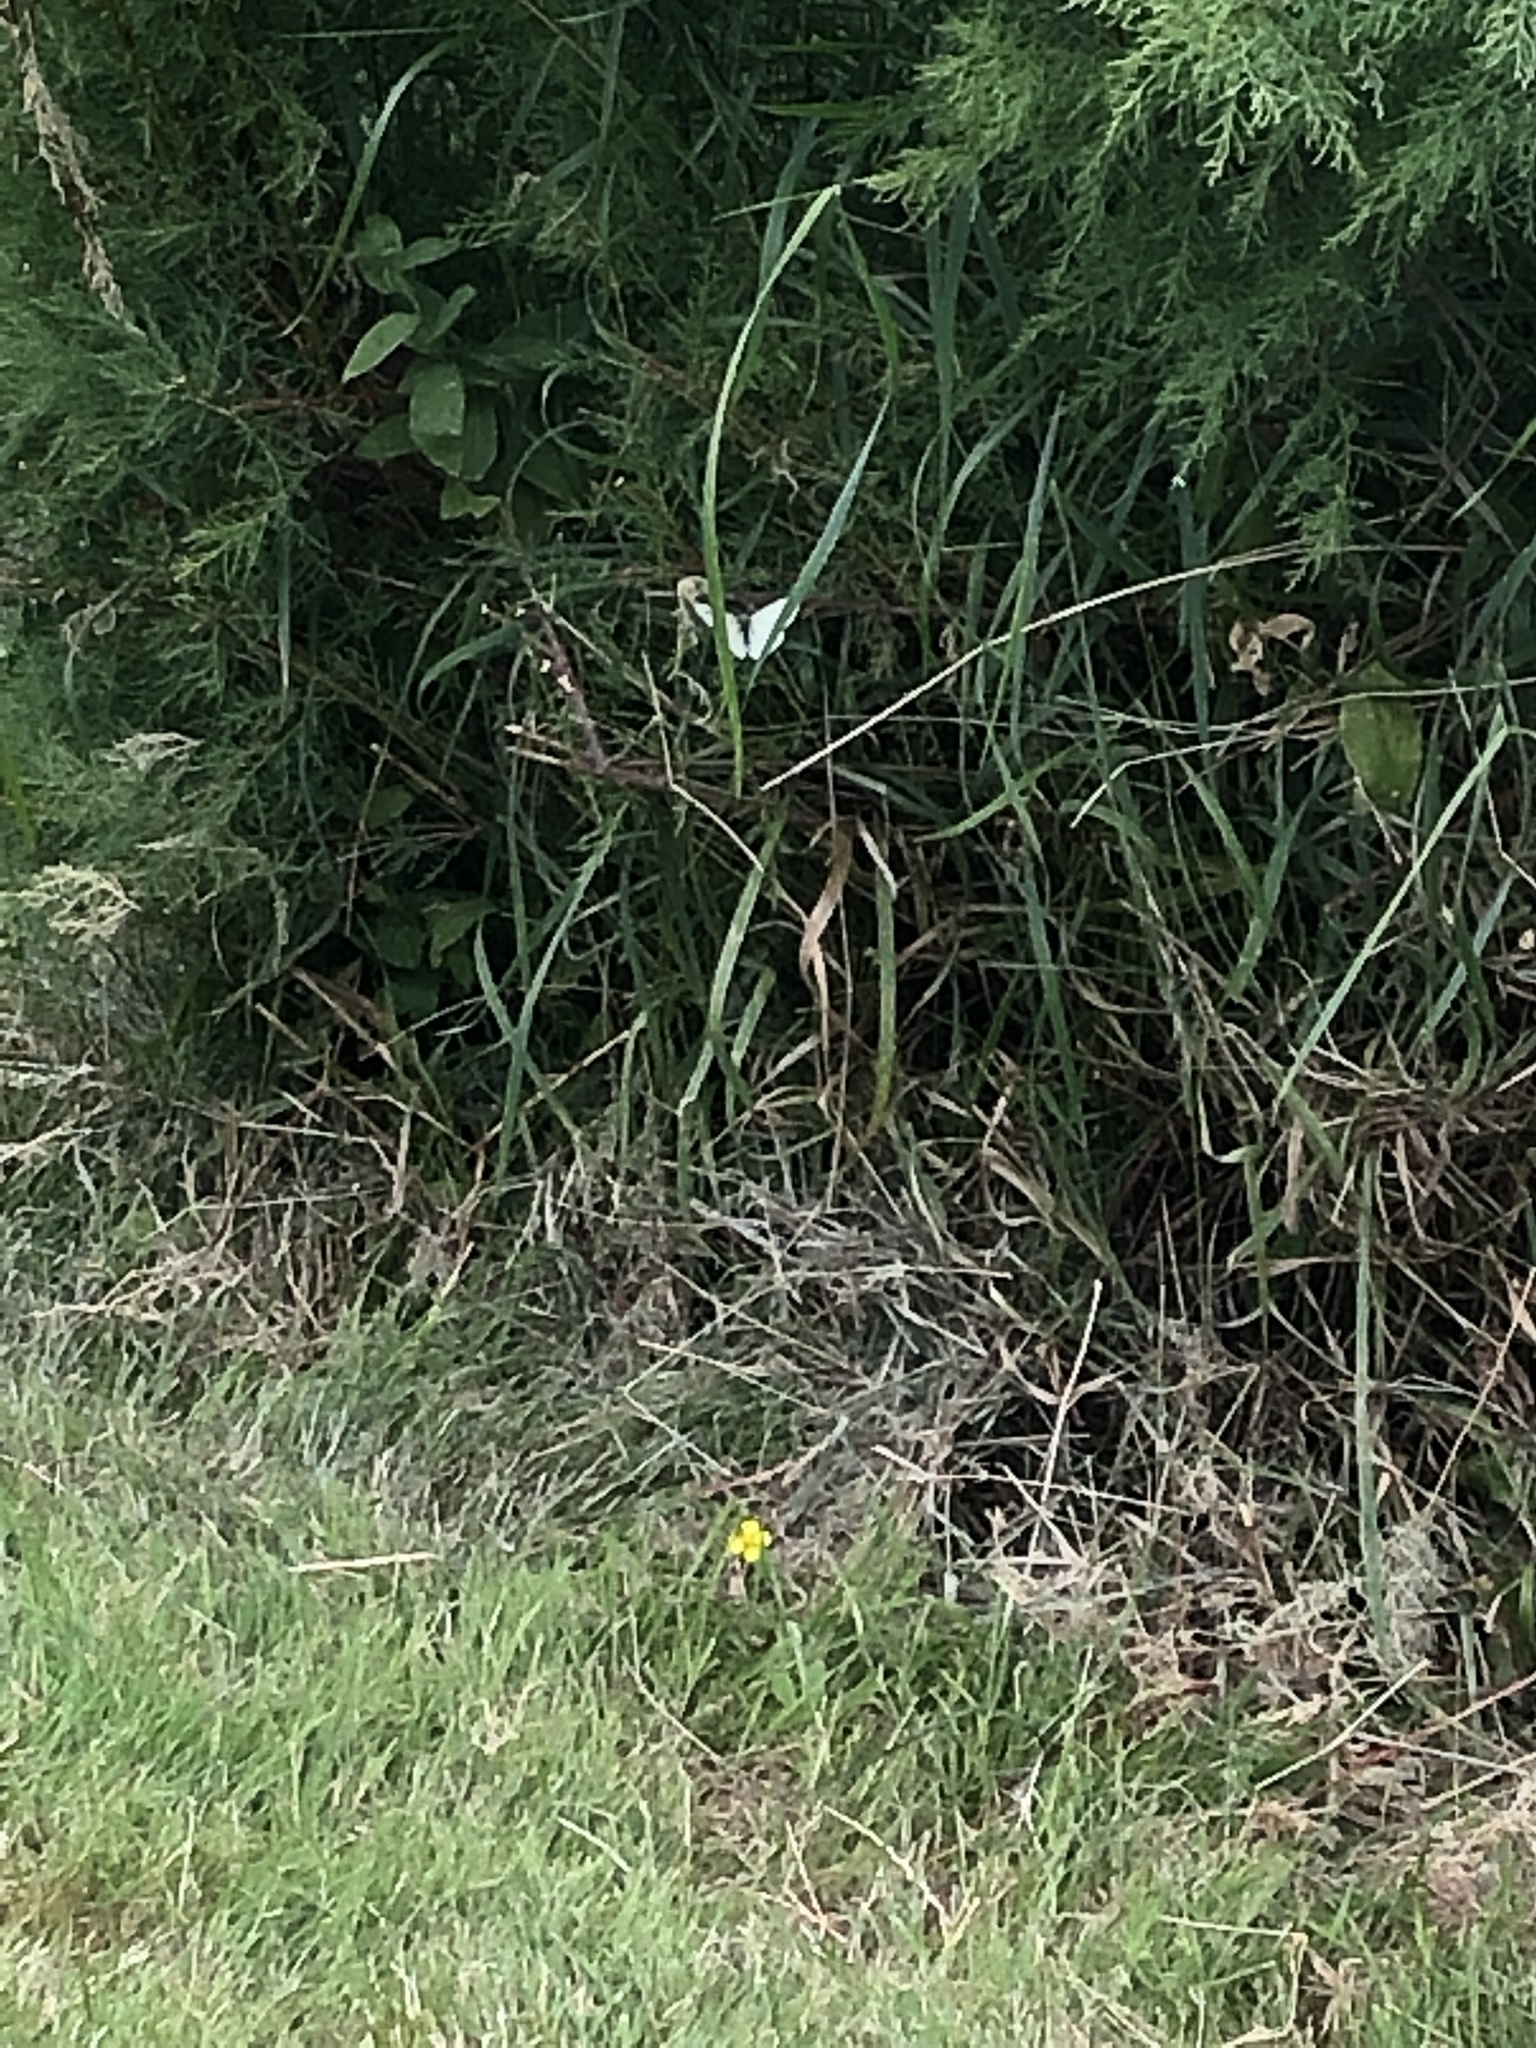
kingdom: Animalia
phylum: Arthropoda
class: Insecta
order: Lepidoptera
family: Pieridae
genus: Pieris
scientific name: Pieris
